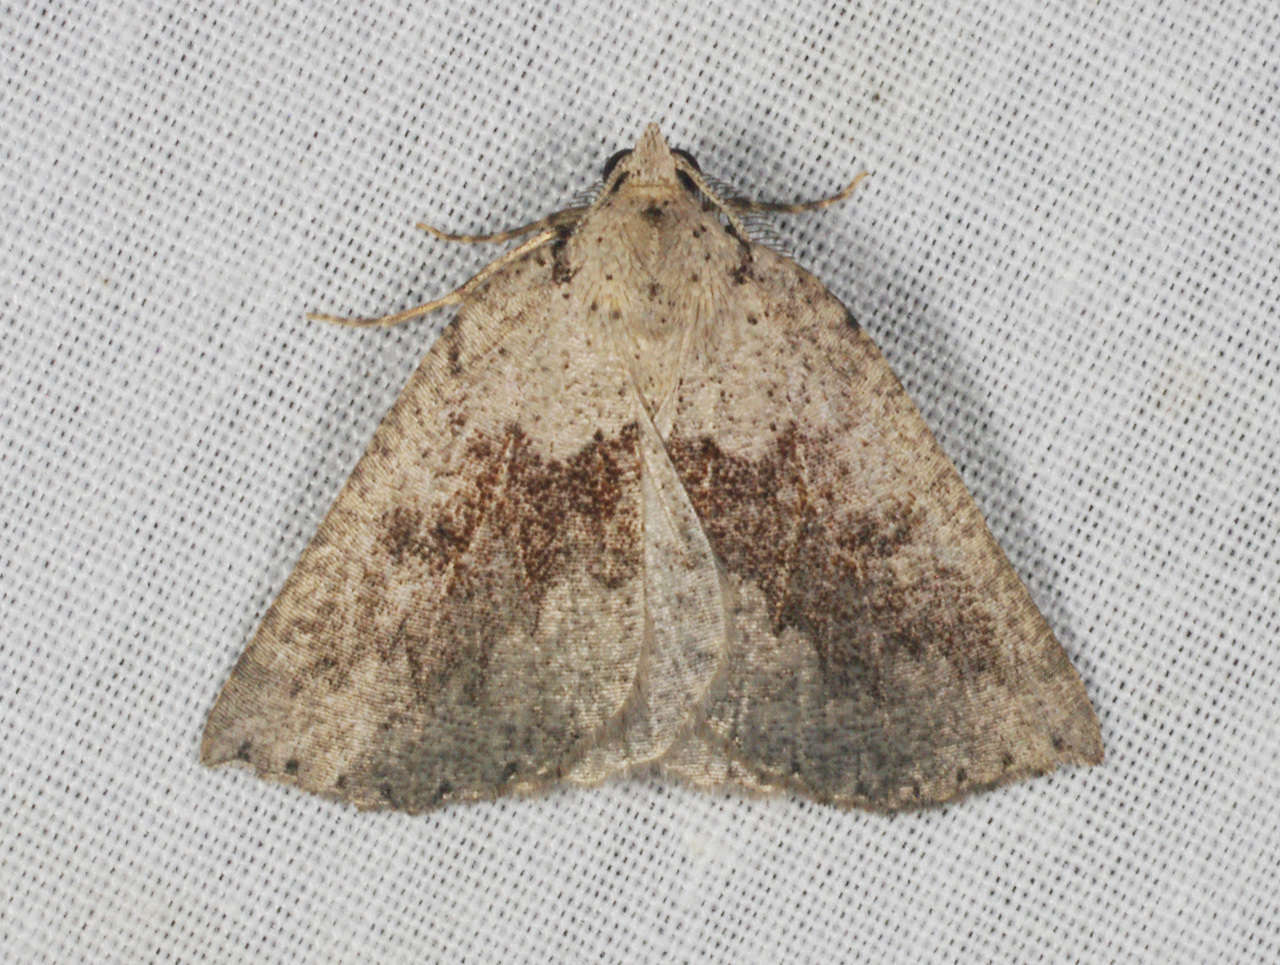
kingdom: Animalia
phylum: Arthropoda
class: Insecta
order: Lepidoptera
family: Geometridae
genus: Amelora
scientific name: Amelora mesocapna
